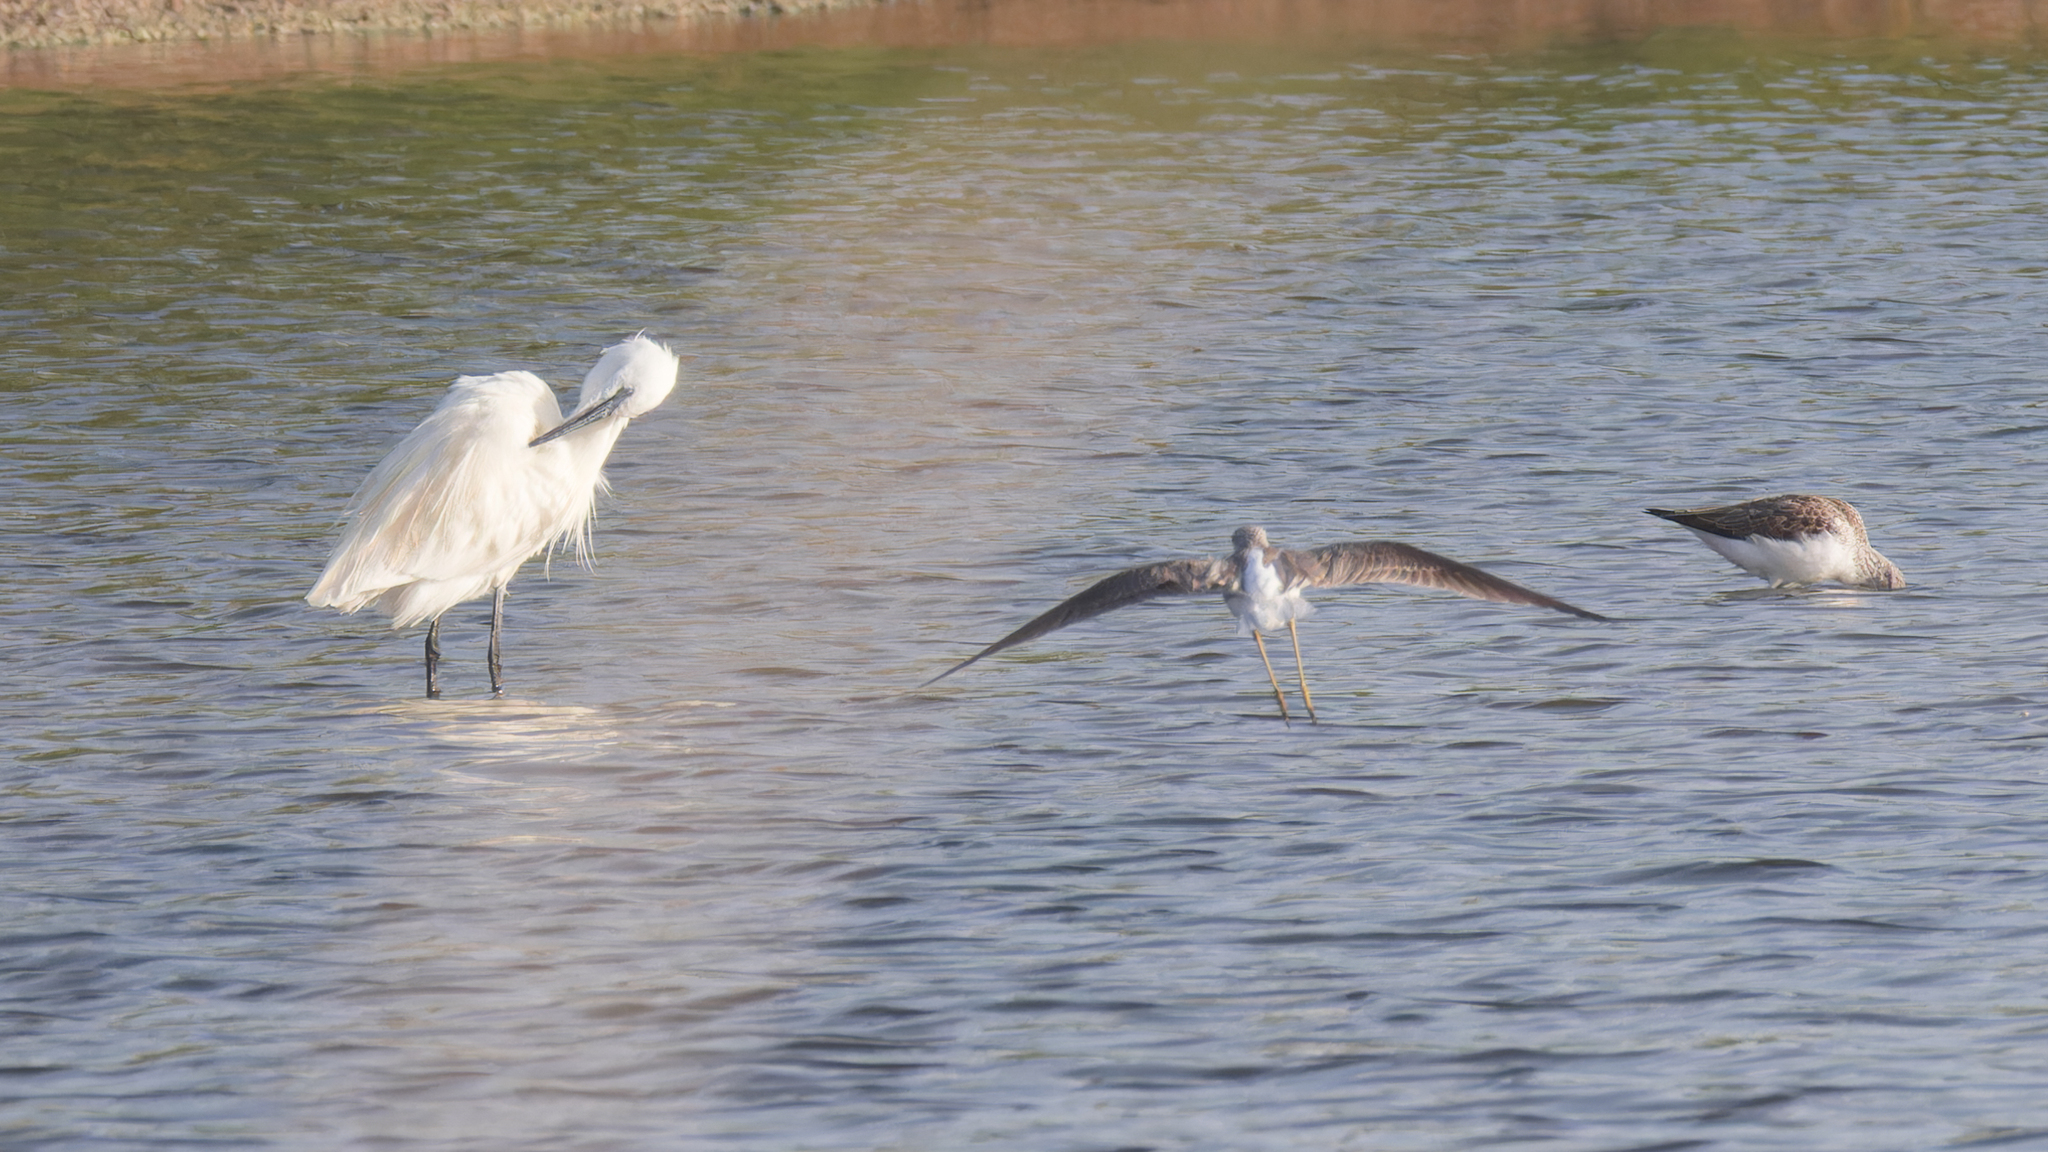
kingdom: Animalia
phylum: Chordata
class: Aves
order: Pelecaniformes
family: Ardeidae
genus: Egretta
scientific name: Egretta garzetta
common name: Little egret
